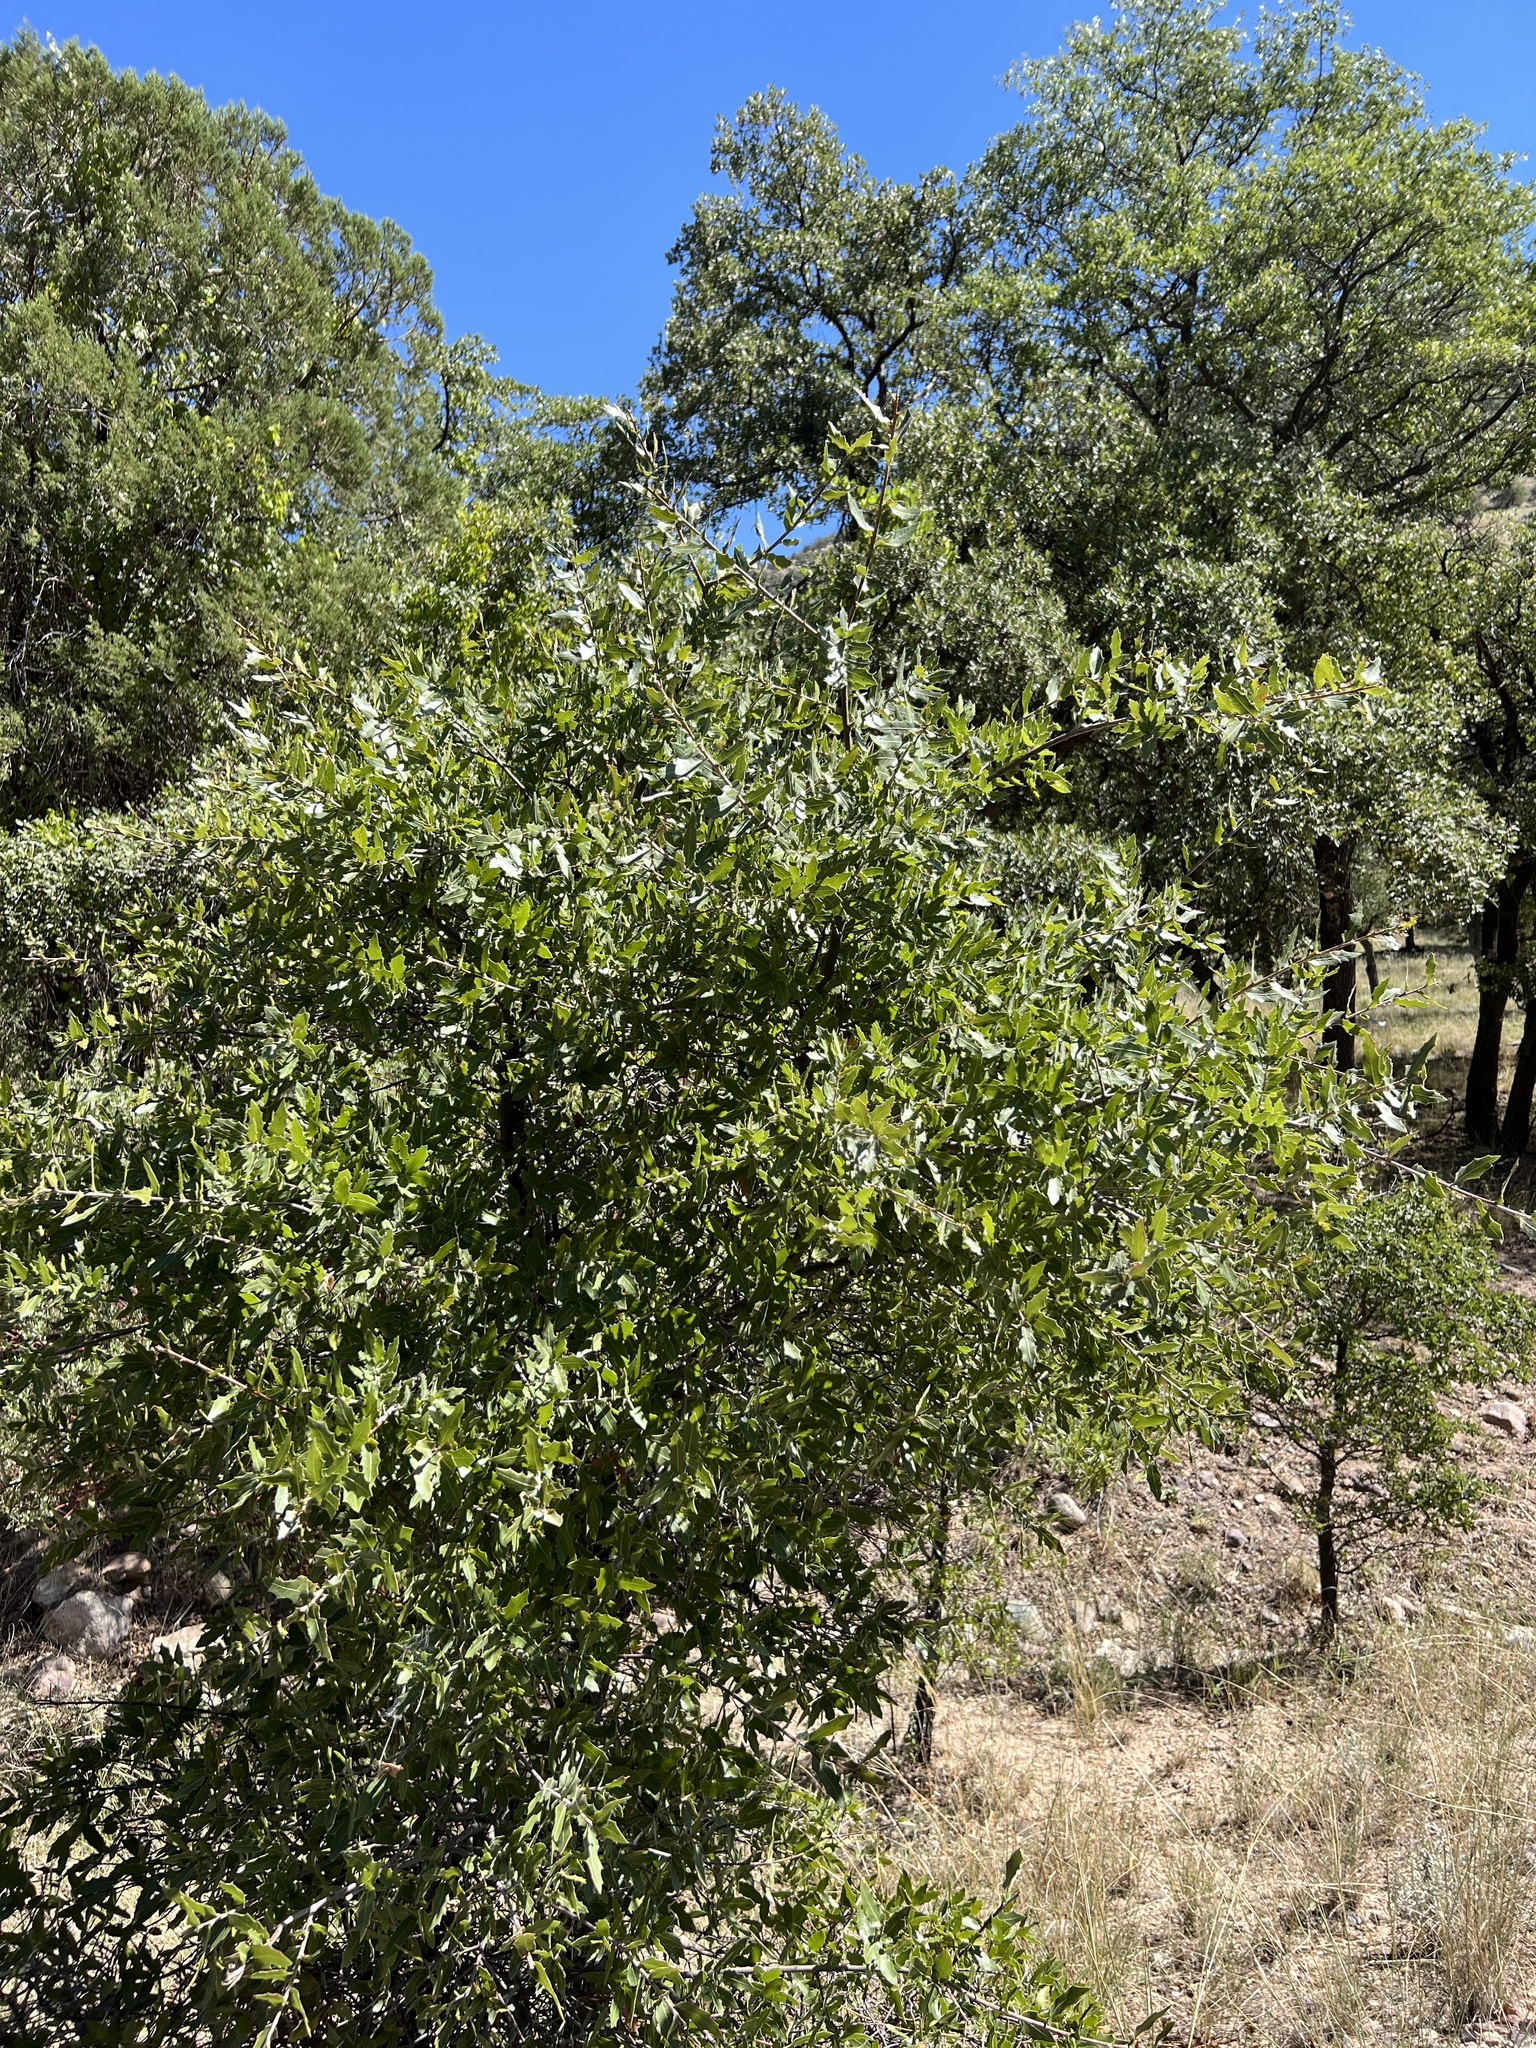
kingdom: Plantae
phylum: Tracheophyta
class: Magnoliopsida
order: Fagales
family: Fagaceae
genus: Quercus
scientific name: Quercus emoryi
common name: Emory oak
